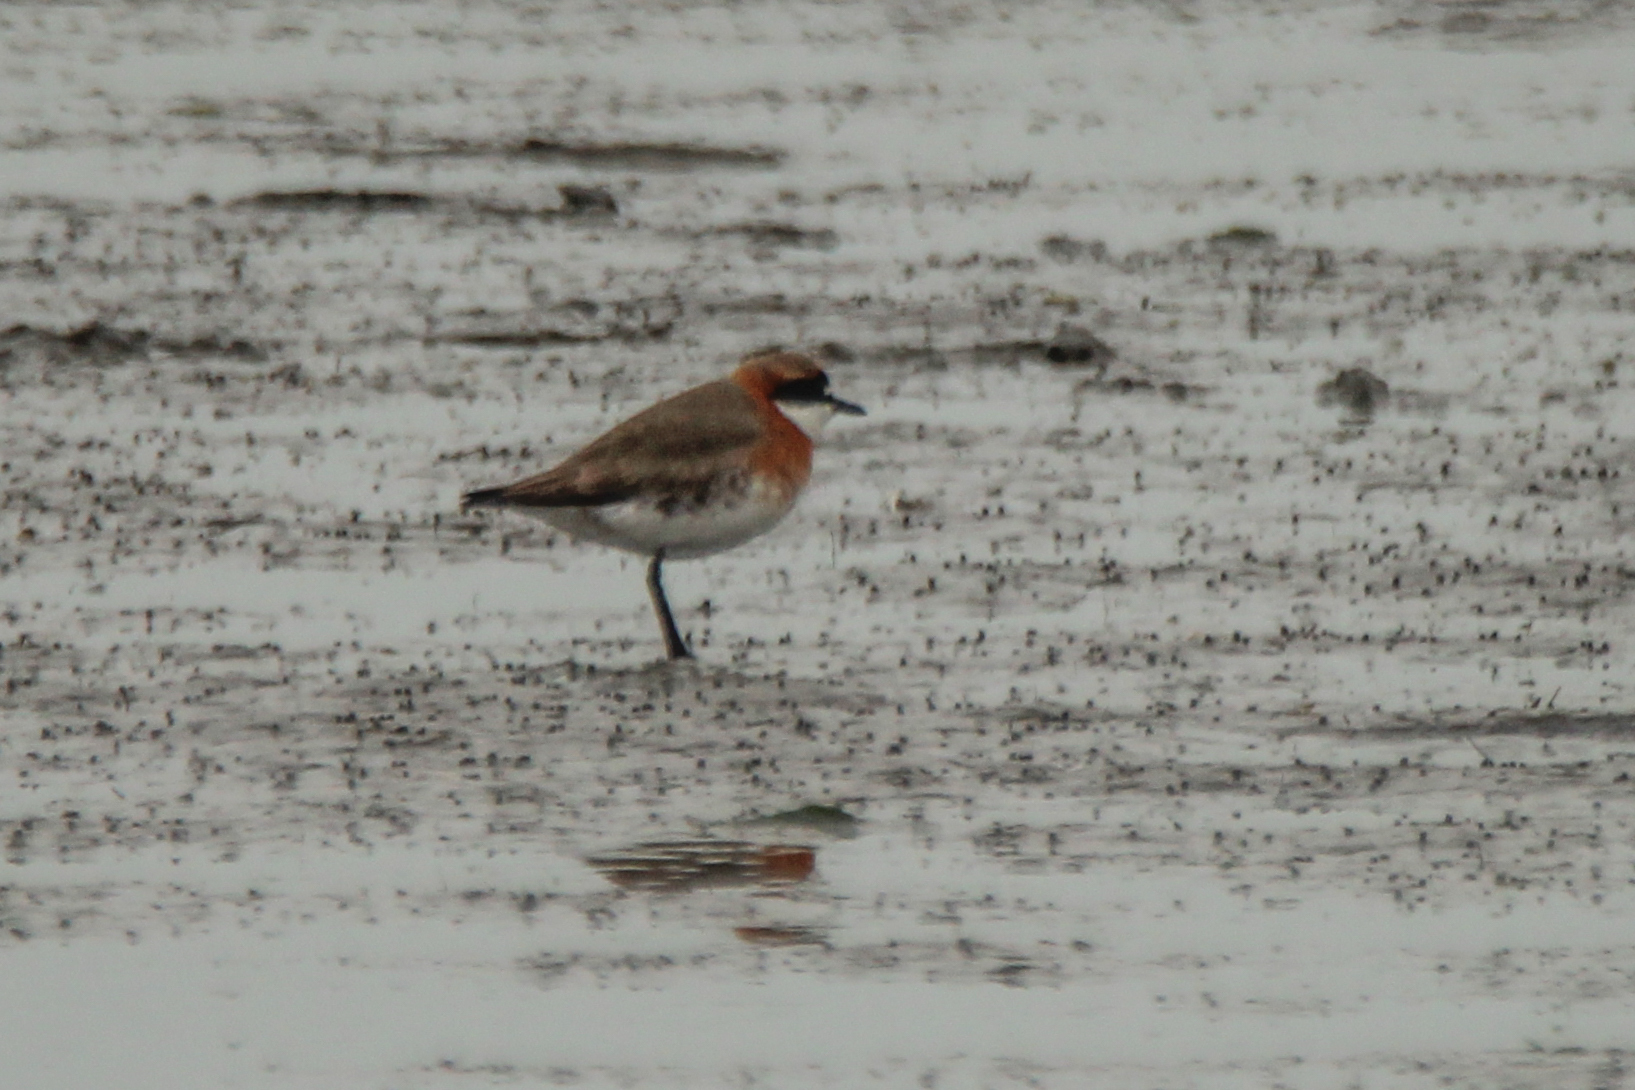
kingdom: Animalia
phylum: Chordata
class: Aves
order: Charadriiformes
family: Charadriidae
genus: Anarhynchus
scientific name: Anarhynchus
